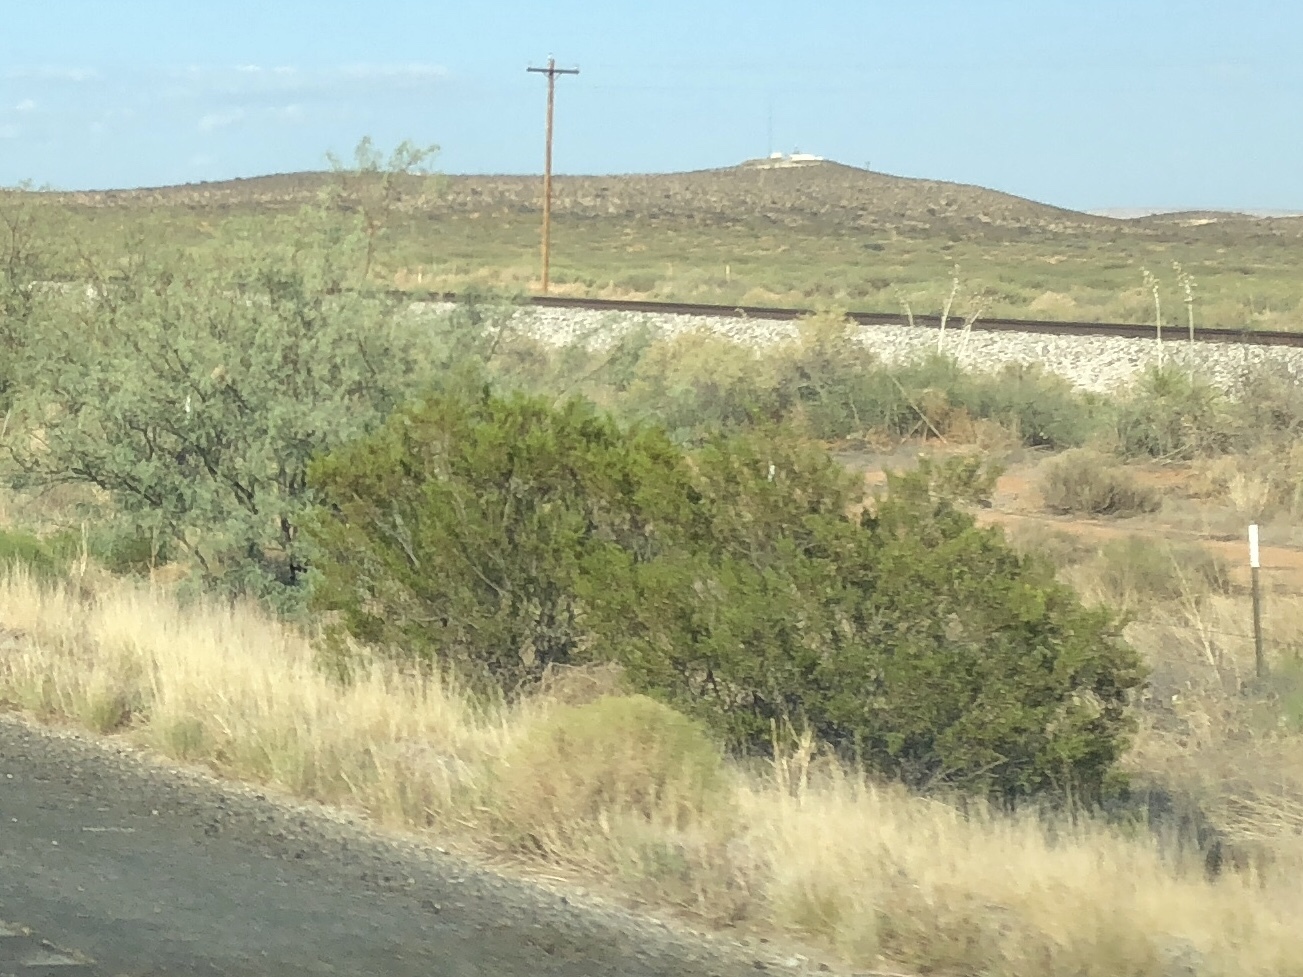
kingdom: Plantae
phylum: Tracheophyta
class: Magnoliopsida
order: Zygophyllales
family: Zygophyllaceae
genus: Larrea
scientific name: Larrea tridentata
